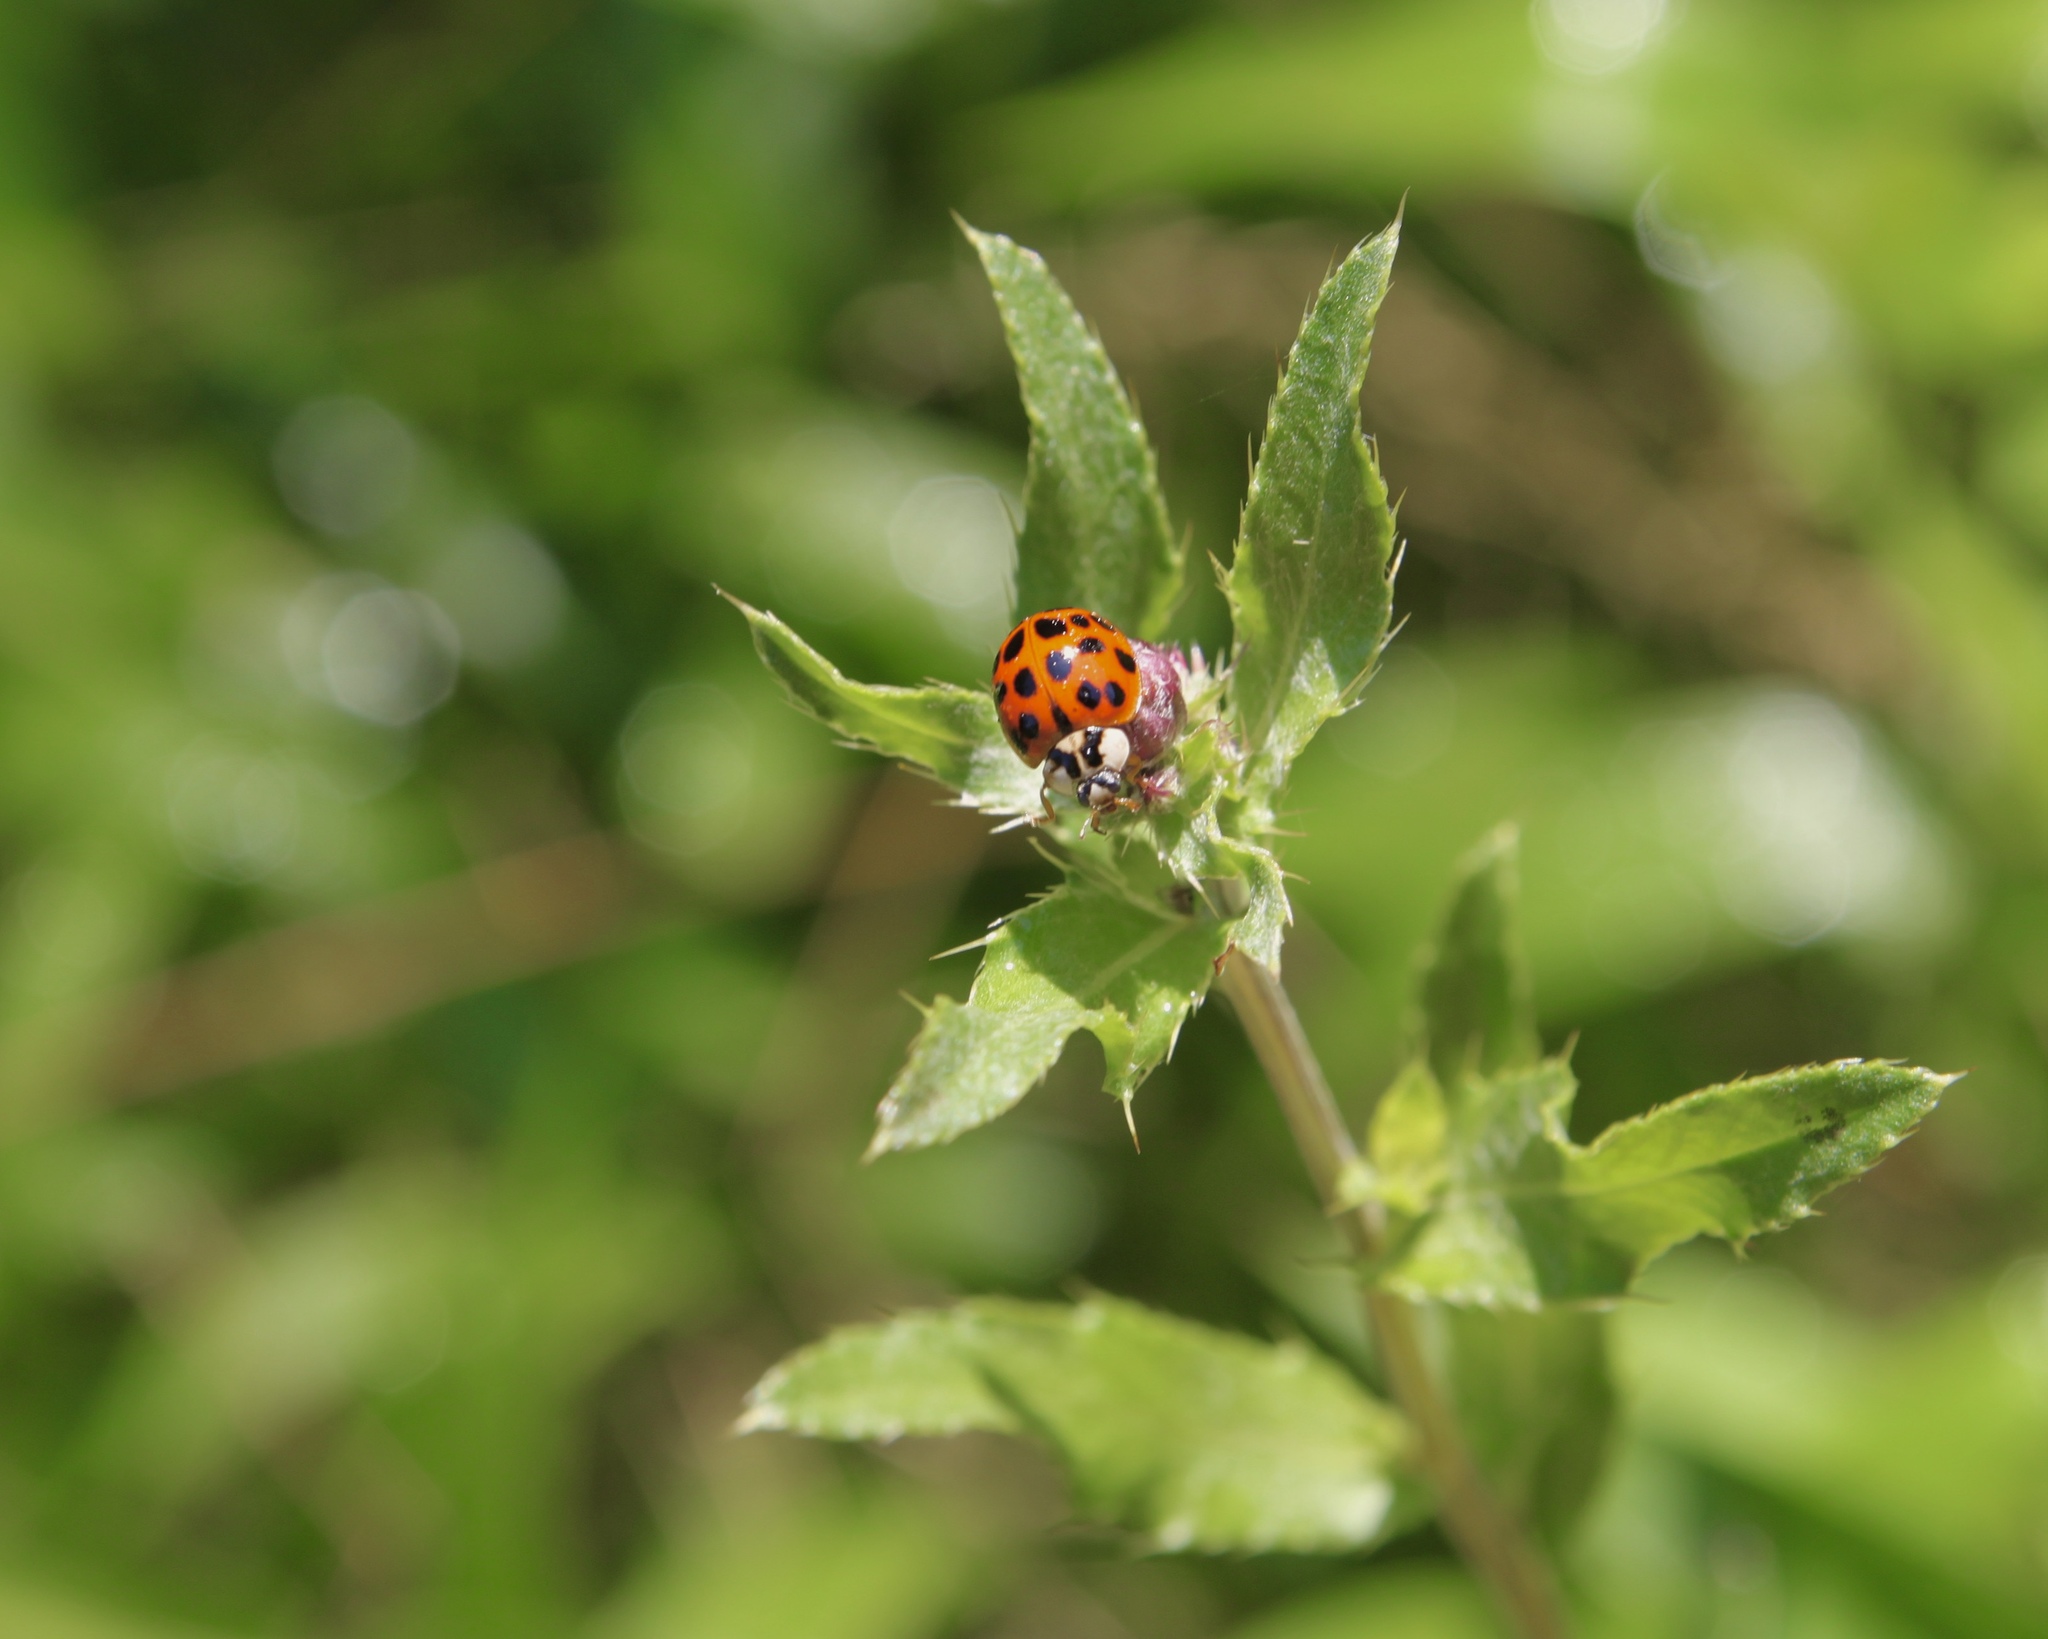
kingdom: Animalia
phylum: Arthropoda
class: Insecta
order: Coleoptera
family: Coccinellidae
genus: Harmonia
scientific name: Harmonia axyridis
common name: Harlequin ladybird
